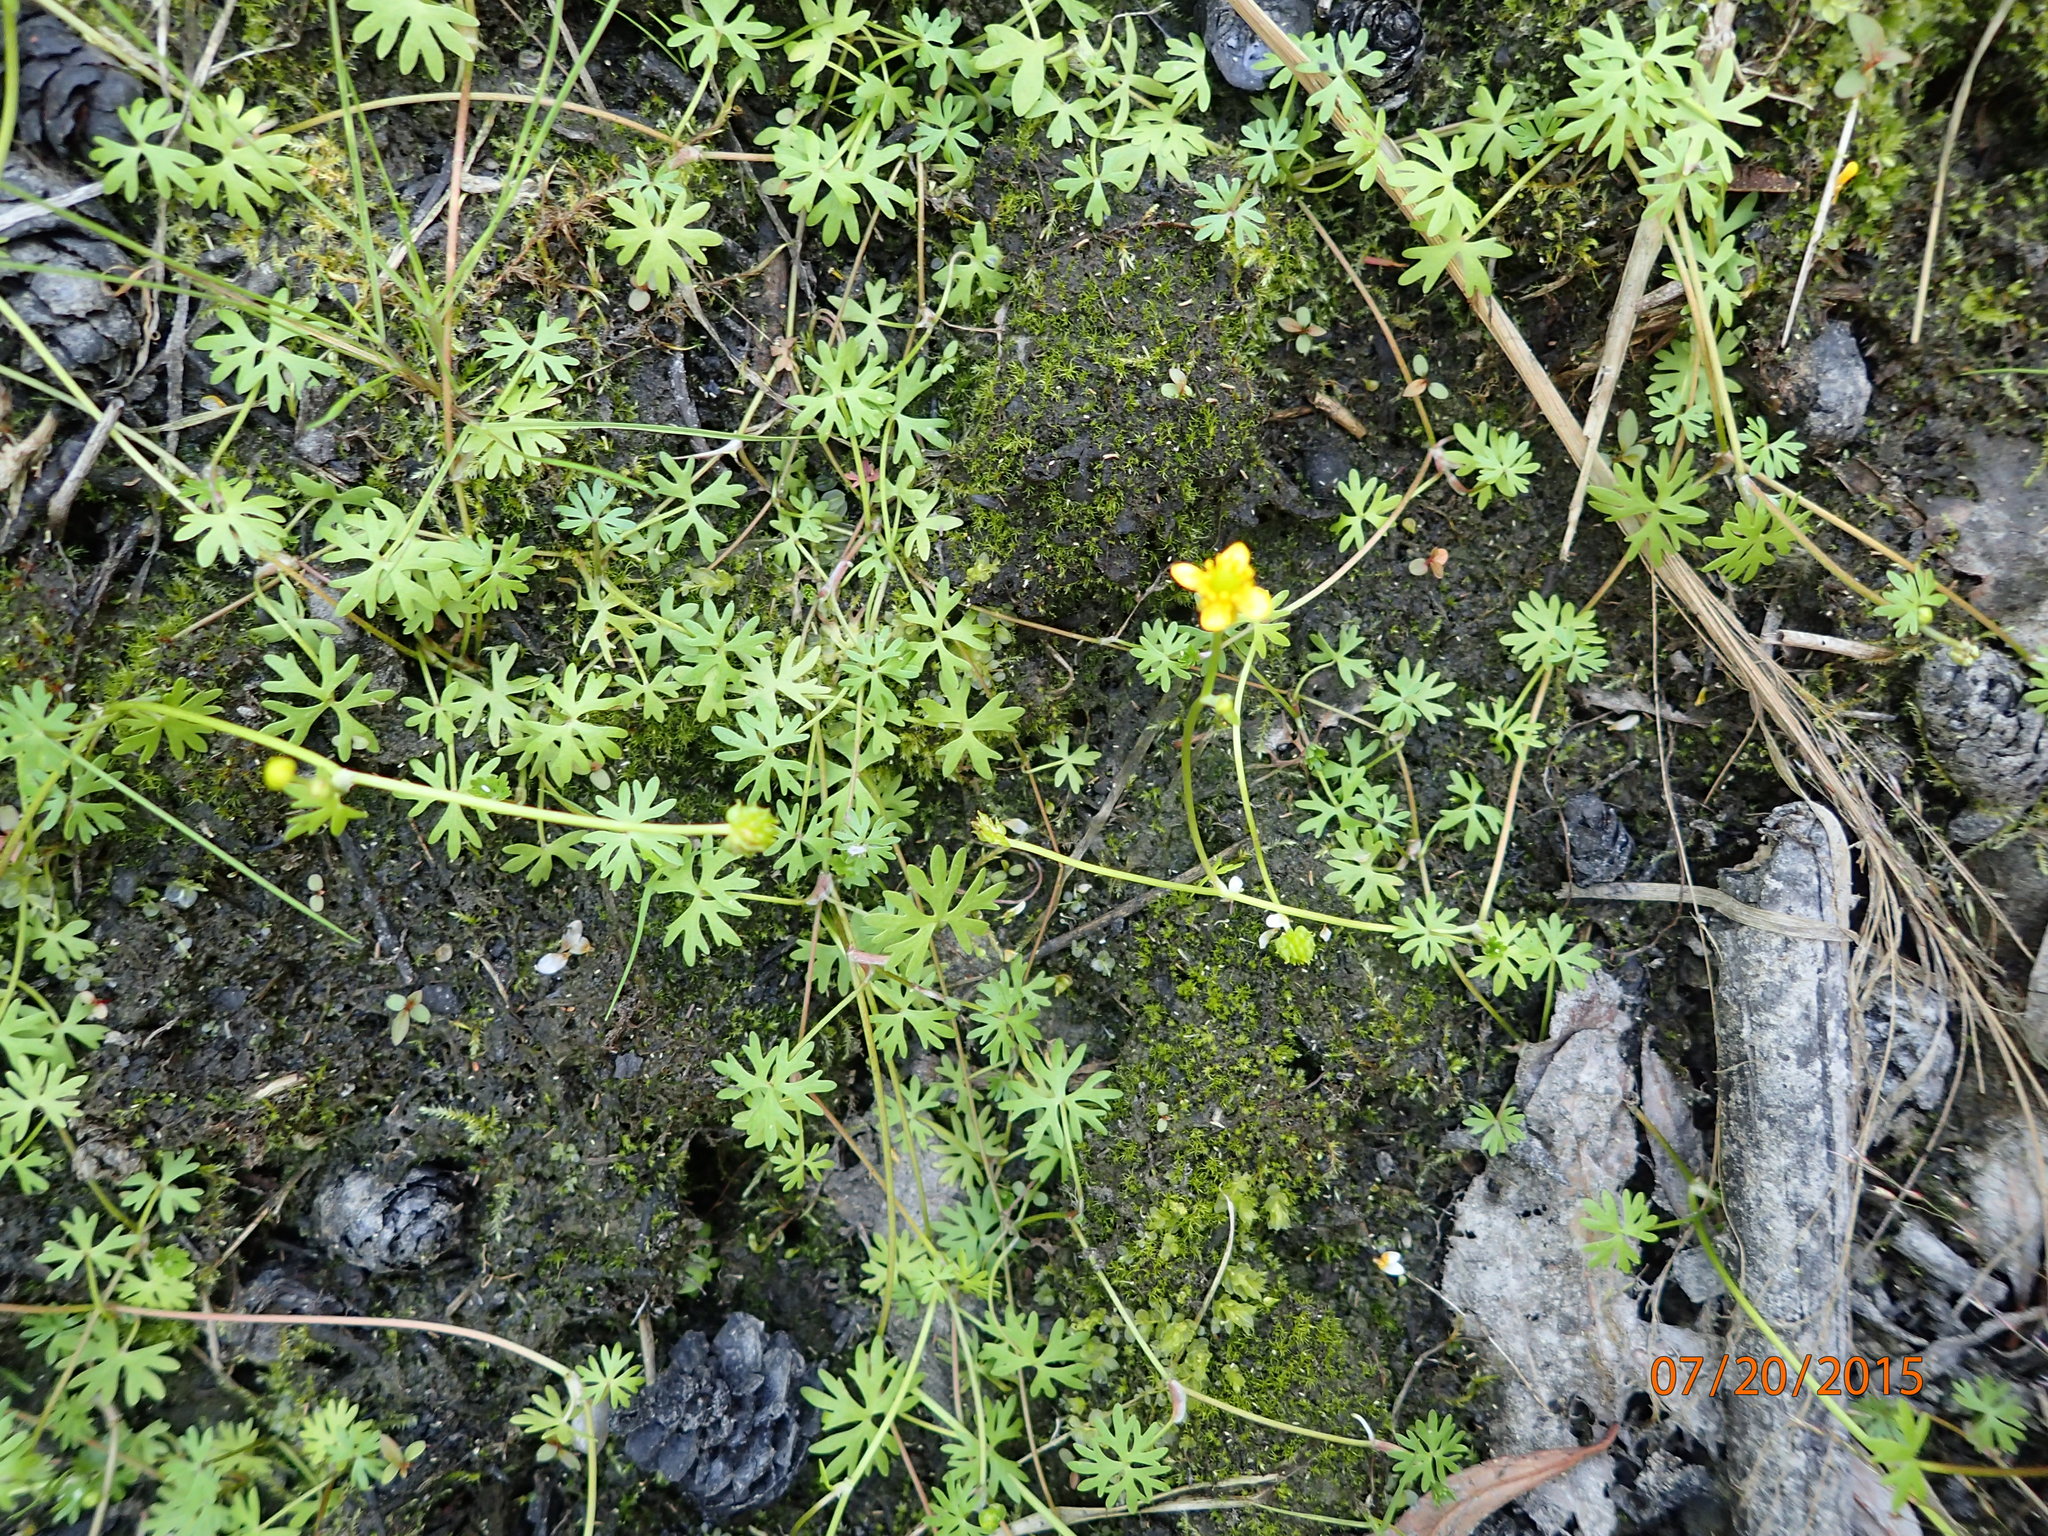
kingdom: Plantae
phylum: Tracheophyta
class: Magnoliopsida
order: Ranunculales
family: Ranunculaceae
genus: Ranunculus
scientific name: Ranunculus gmelinii
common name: Gmelin's buttercup
